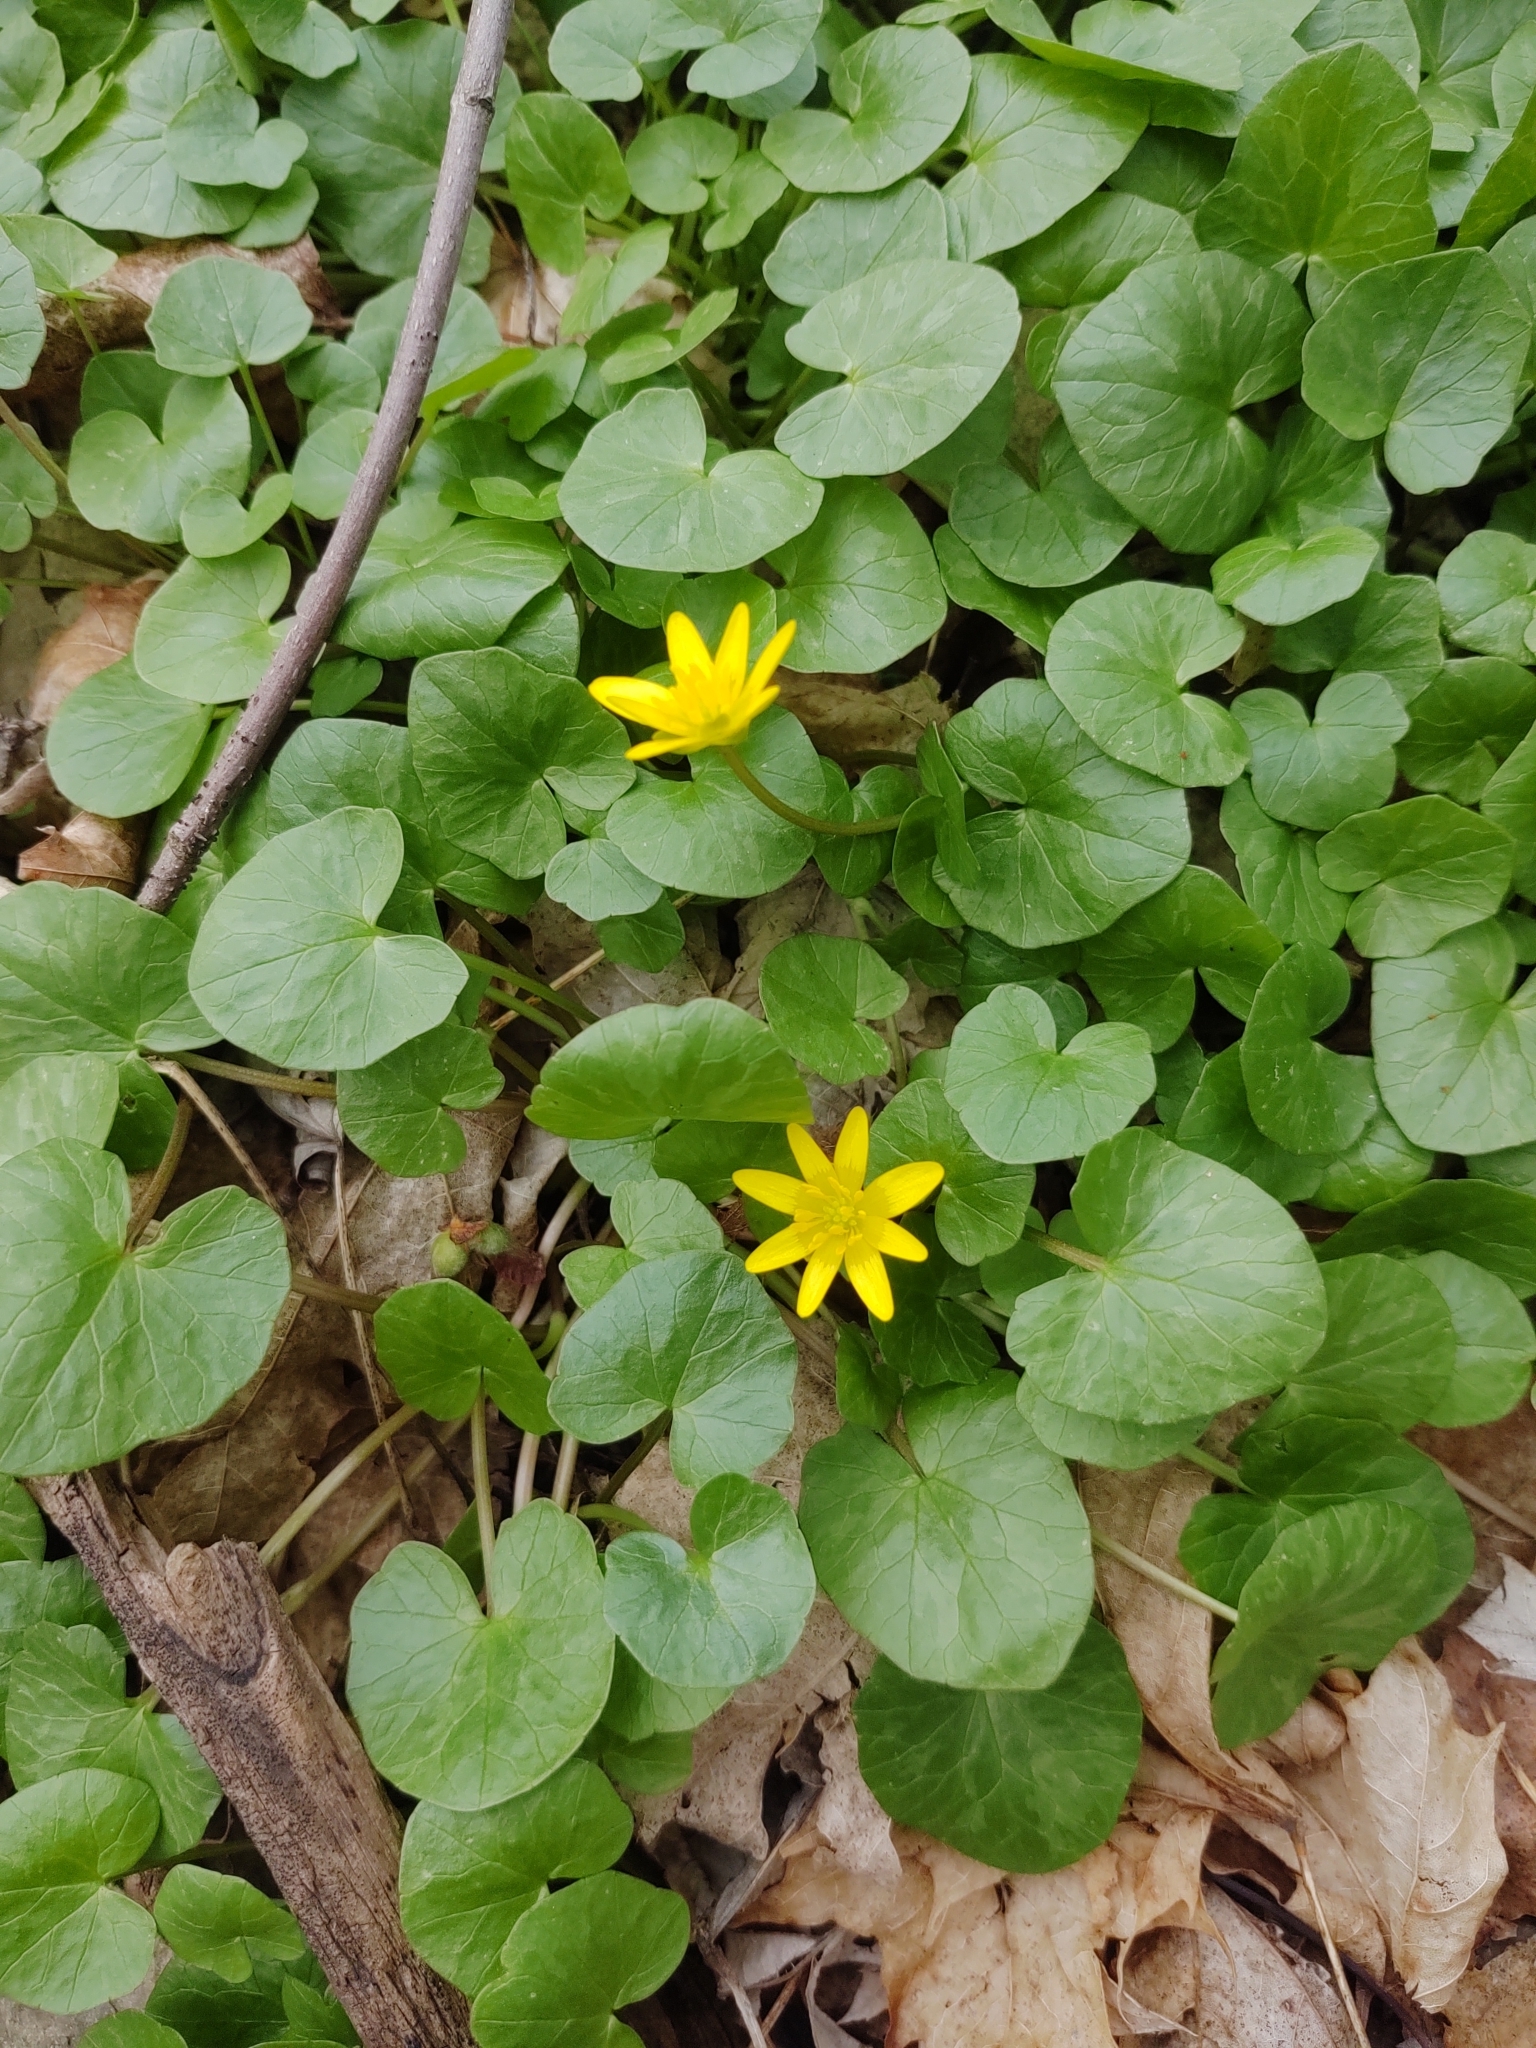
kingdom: Plantae
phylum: Tracheophyta
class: Magnoliopsida
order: Ranunculales
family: Ranunculaceae
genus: Ficaria
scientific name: Ficaria verna
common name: Lesser celandine
